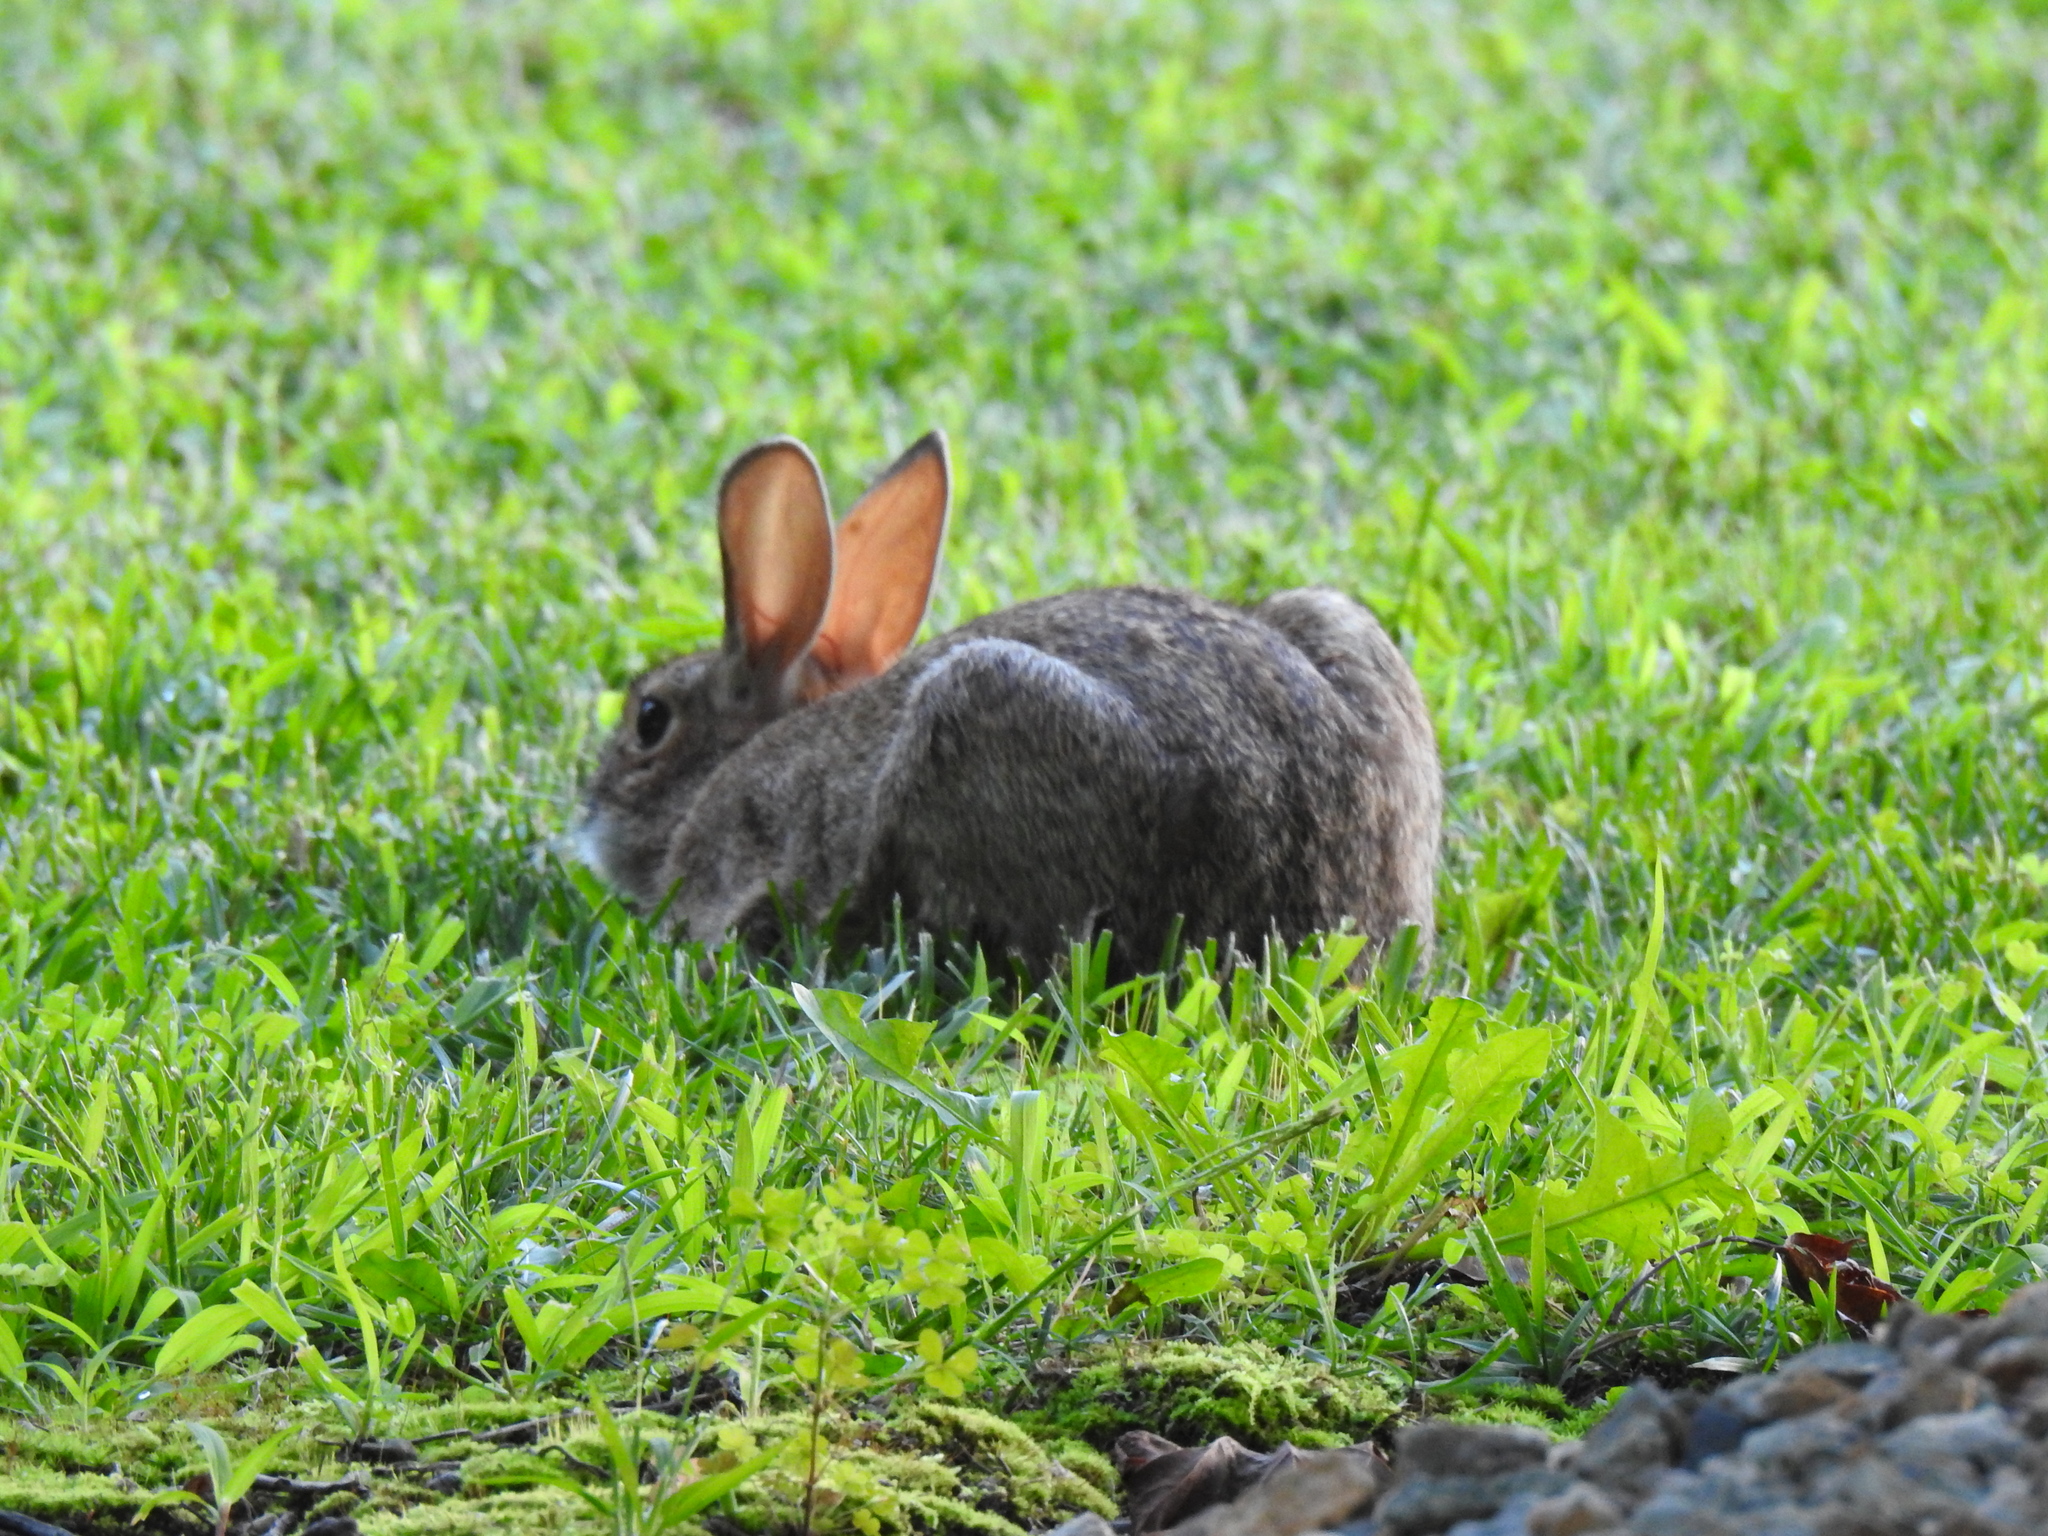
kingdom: Animalia
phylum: Chordata
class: Mammalia
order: Lagomorpha
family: Leporidae
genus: Sylvilagus
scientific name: Sylvilagus floridanus
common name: Eastern cottontail
